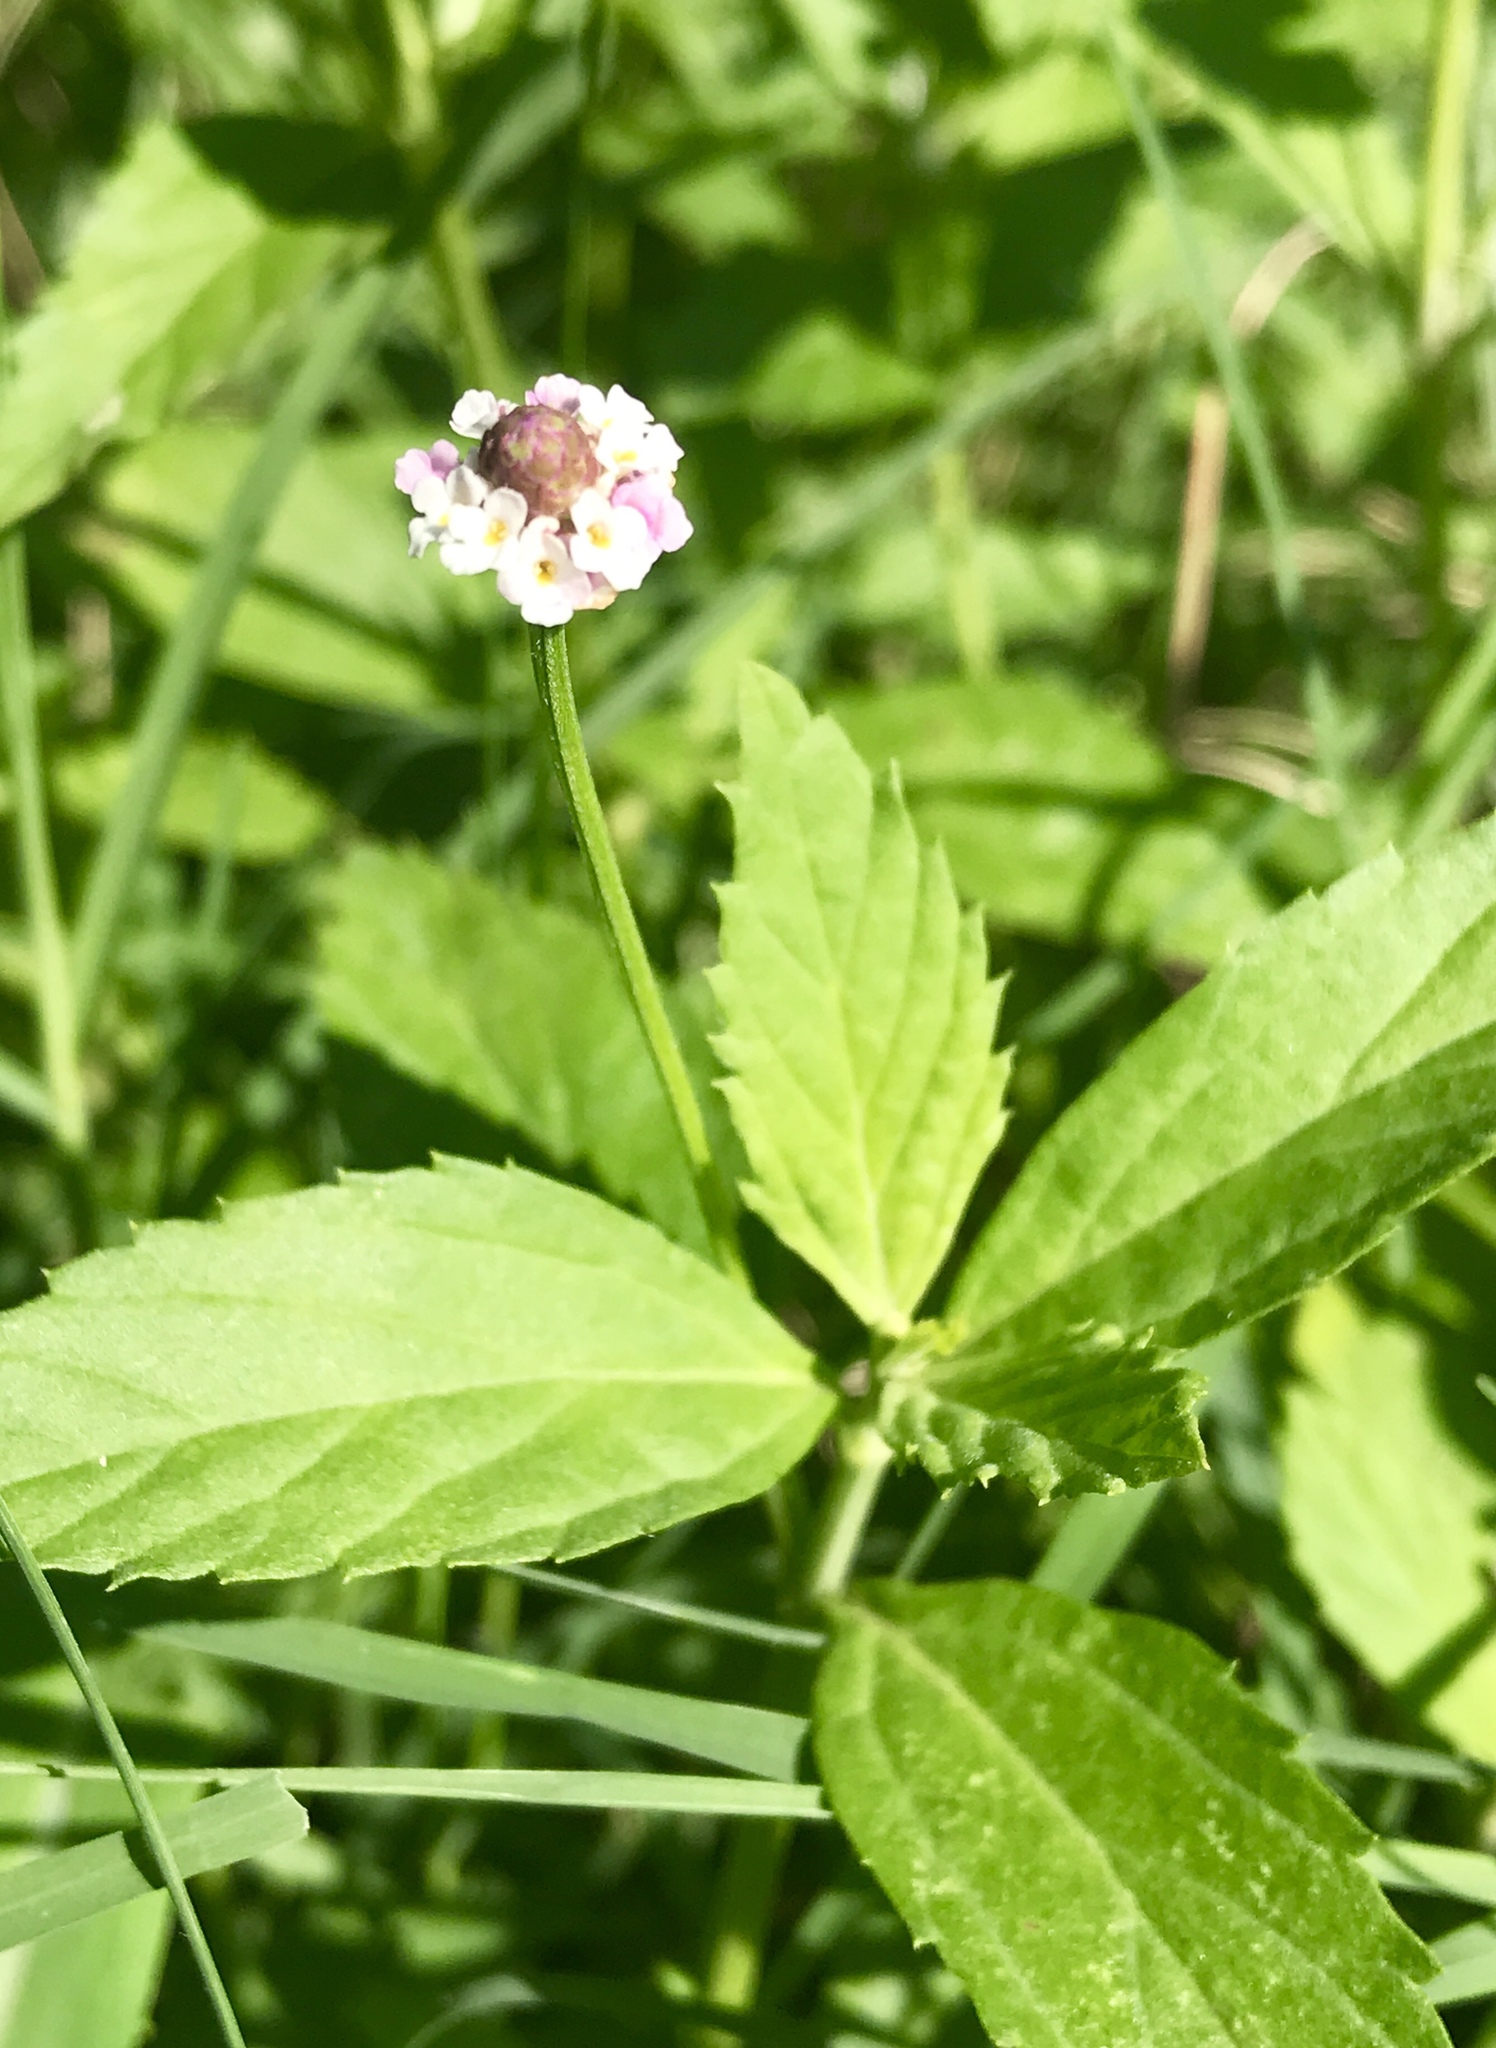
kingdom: Plantae
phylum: Tracheophyta
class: Magnoliopsida
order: Lamiales
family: Verbenaceae
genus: Phyla
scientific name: Phyla lanceolata
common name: Northern fogfruit
